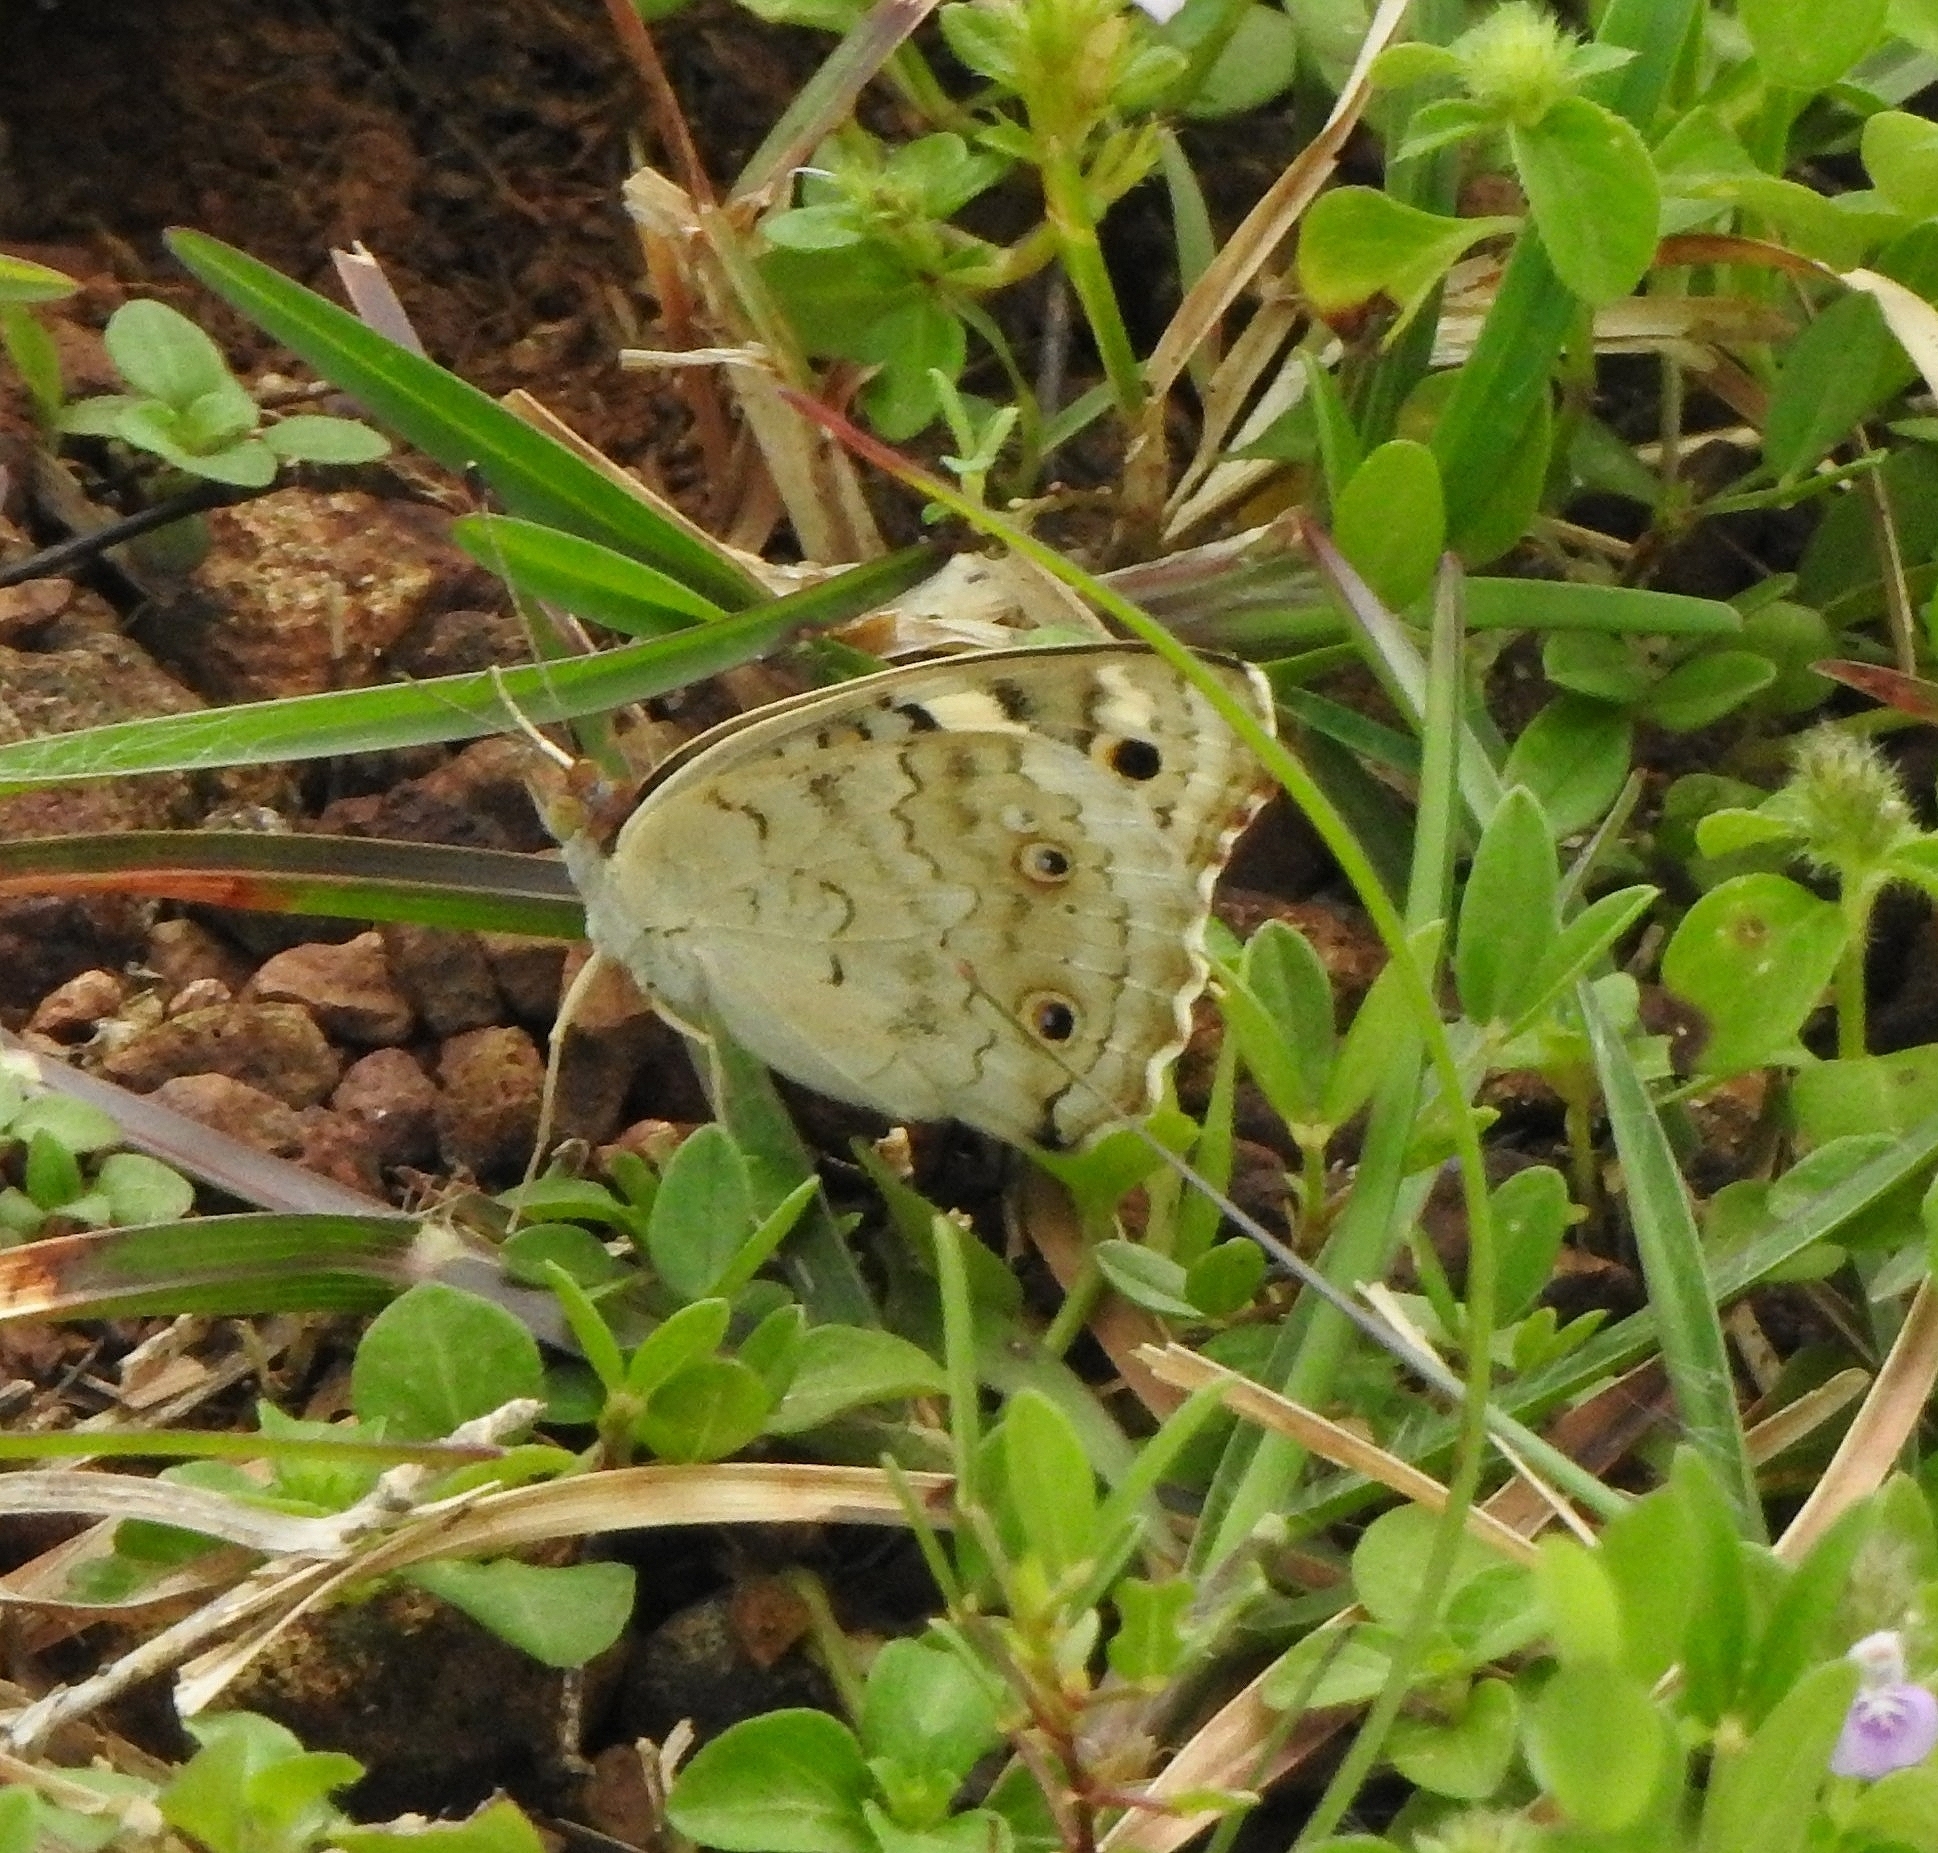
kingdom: Animalia
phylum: Arthropoda
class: Insecta
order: Lepidoptera
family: Nymphalidae
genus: Junonia
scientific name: Junonia orithya
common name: Blue pansy
